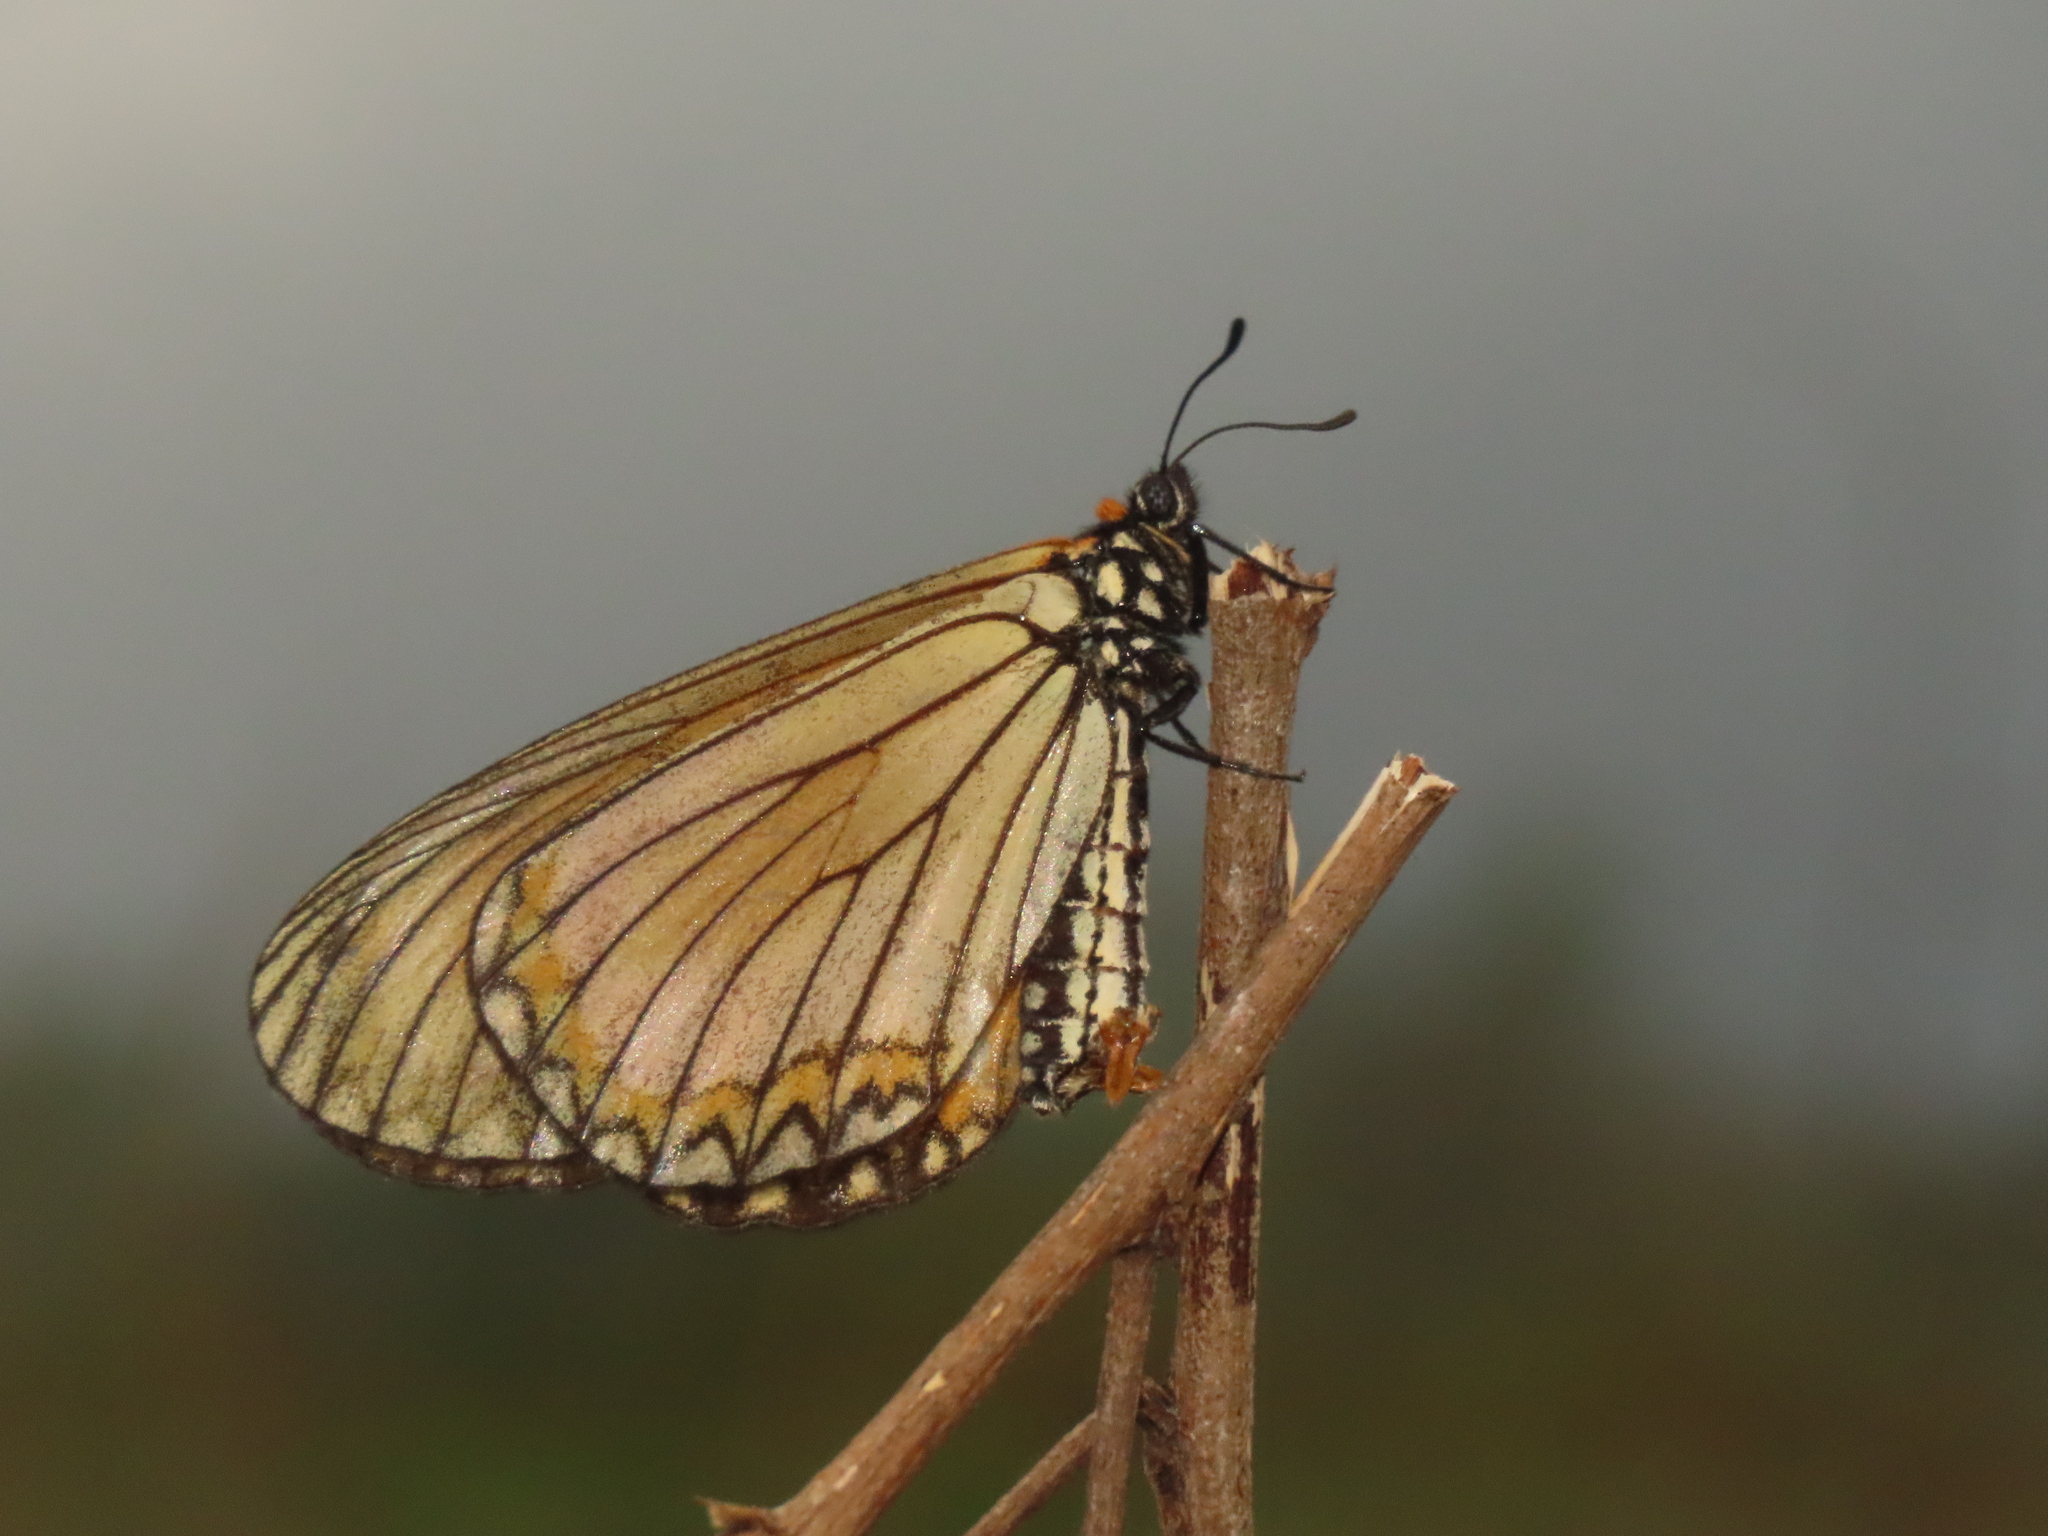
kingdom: Animalia
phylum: Arthropoda
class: Insecta
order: Lepidoptera
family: Nymphalidae
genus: Acraea
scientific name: Acraea Telchinia issoria
